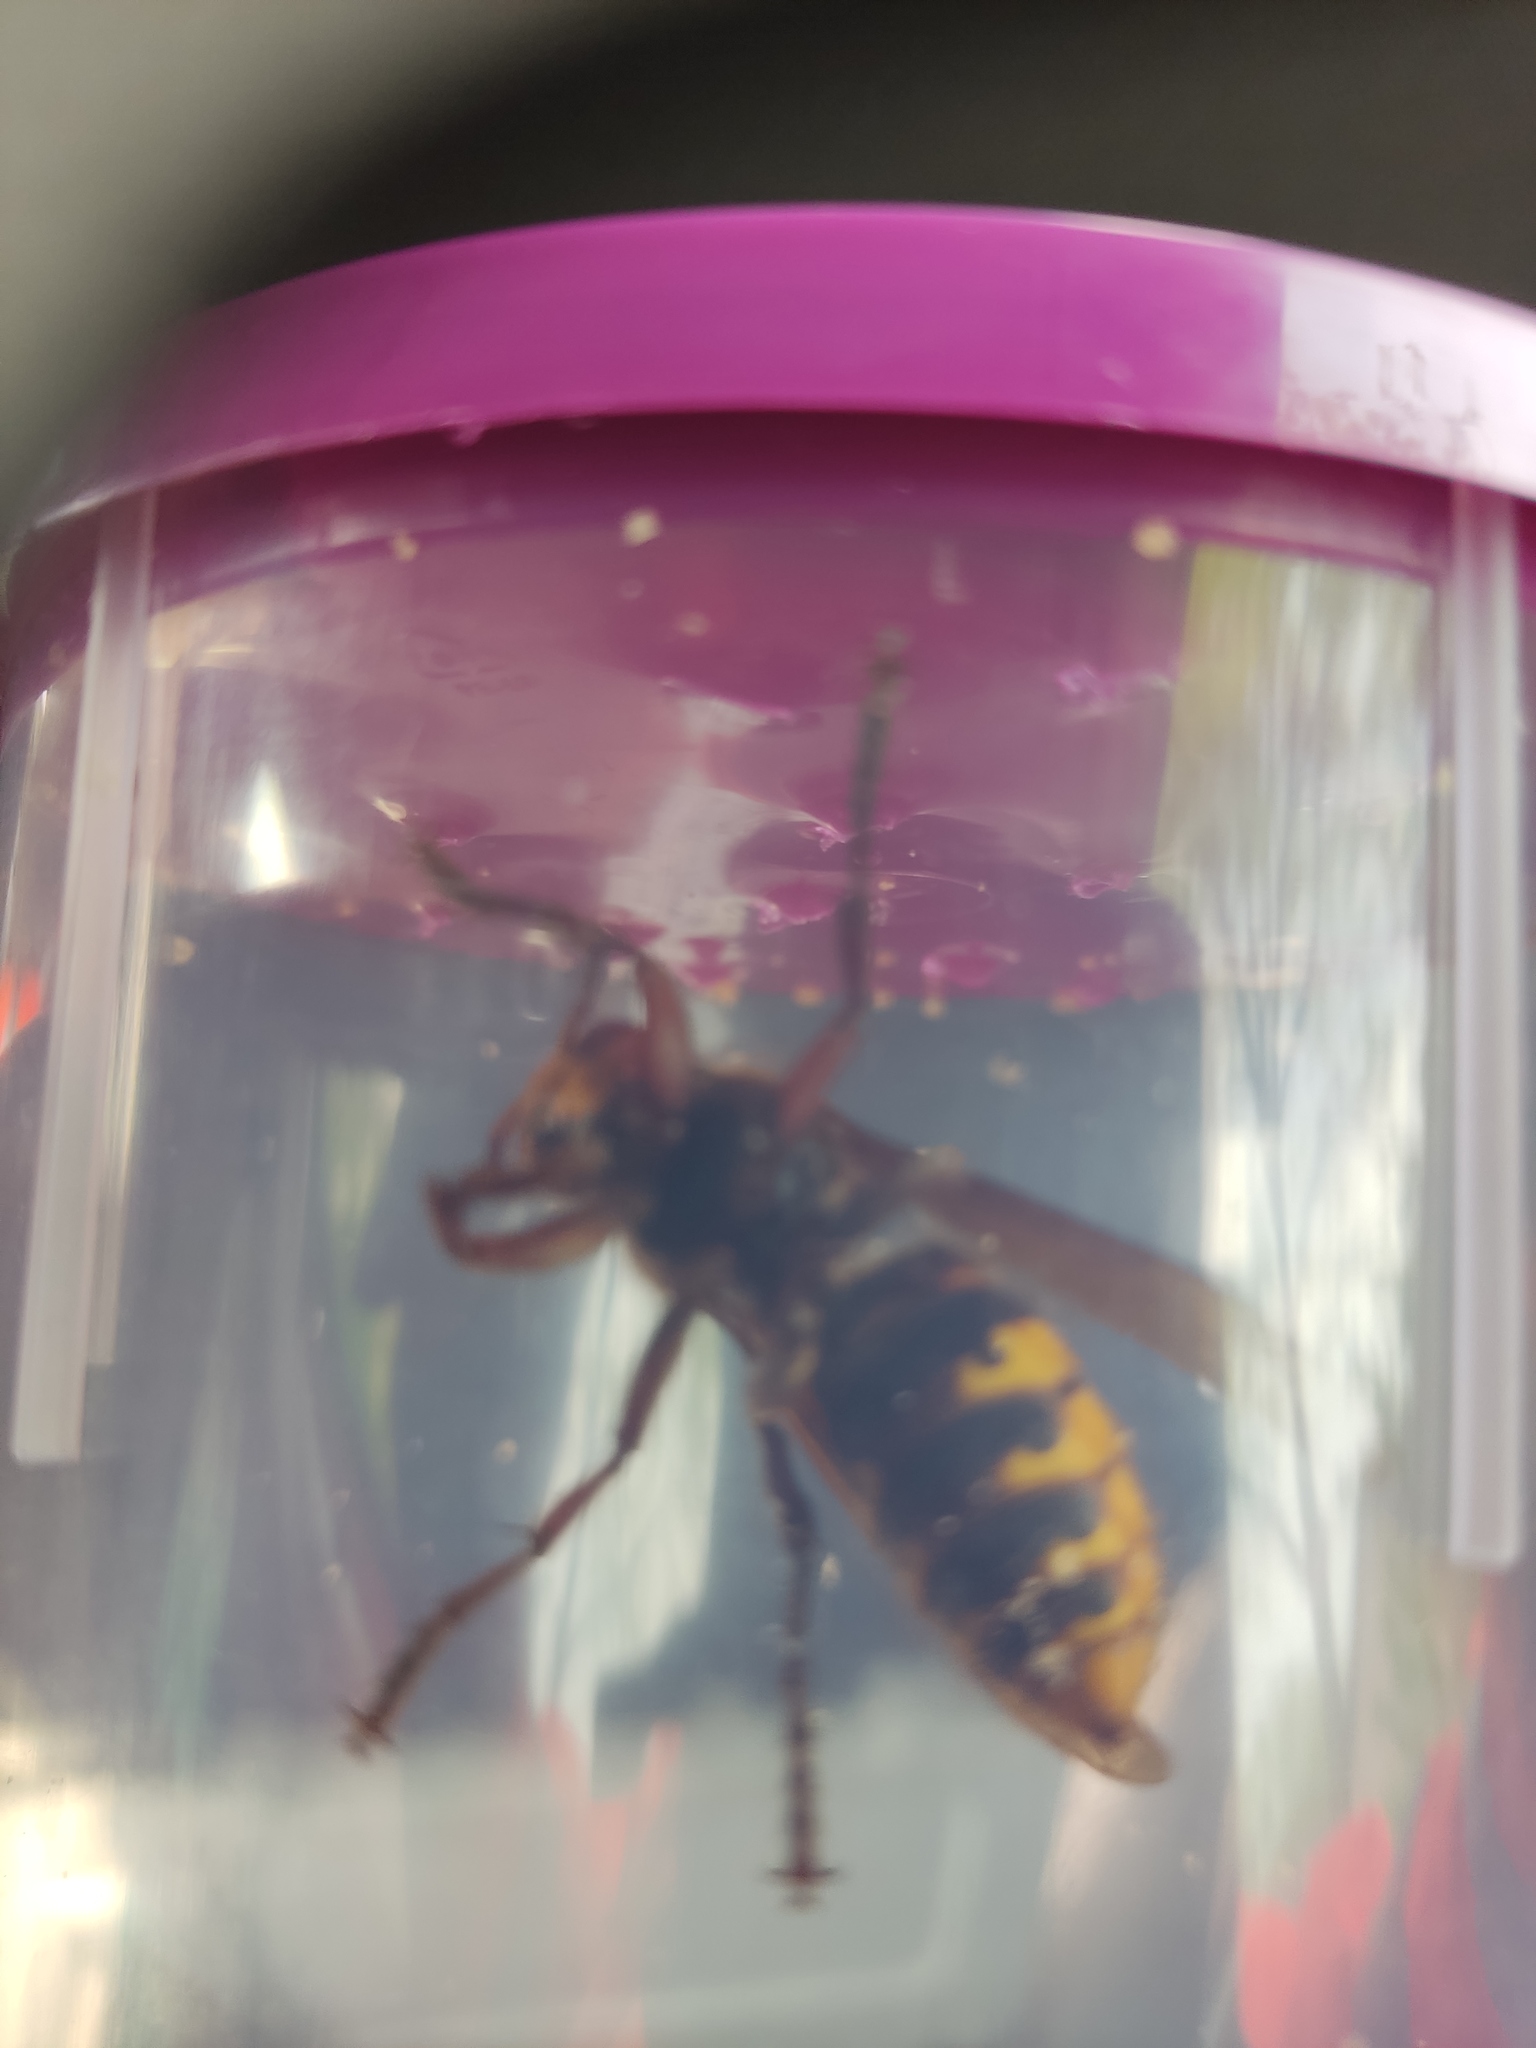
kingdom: Animalia
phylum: Arthropoda
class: Insecta
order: Hymenoptera
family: Vespidae
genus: Vespa
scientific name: Vespa crabro
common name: Hornet
